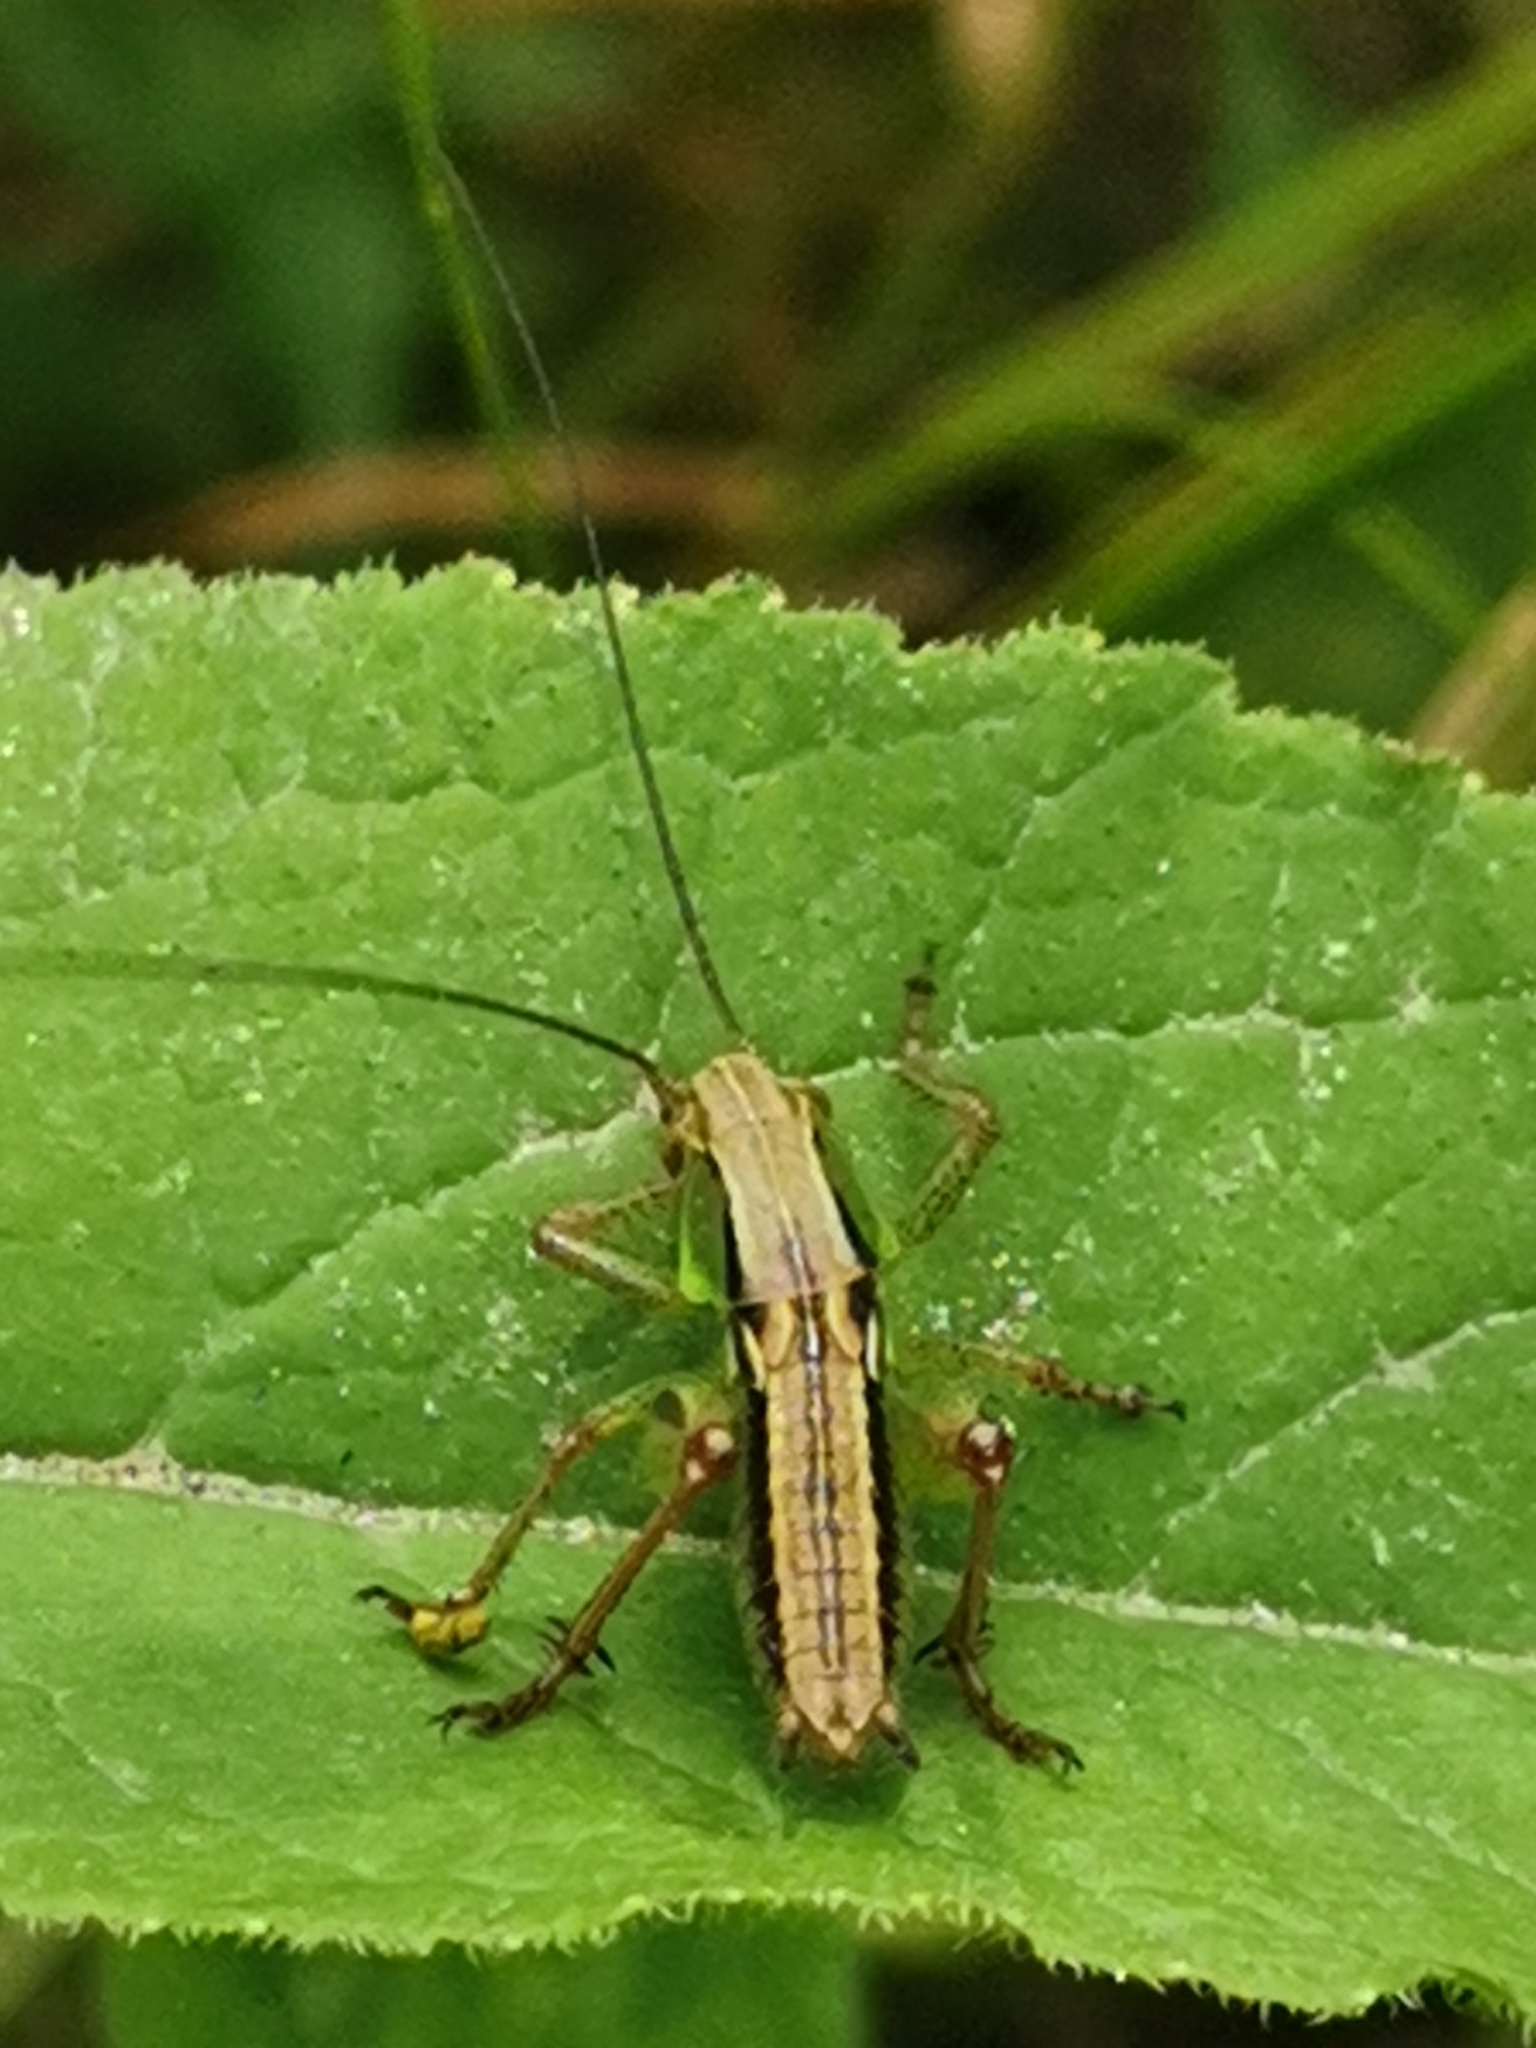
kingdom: Animalia
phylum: Arthropoda
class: Insecta
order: Orthoptera
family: Tettigoniidae
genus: Roeseliana
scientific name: Roeseliana roeselii
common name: Roesel's bush cricket
